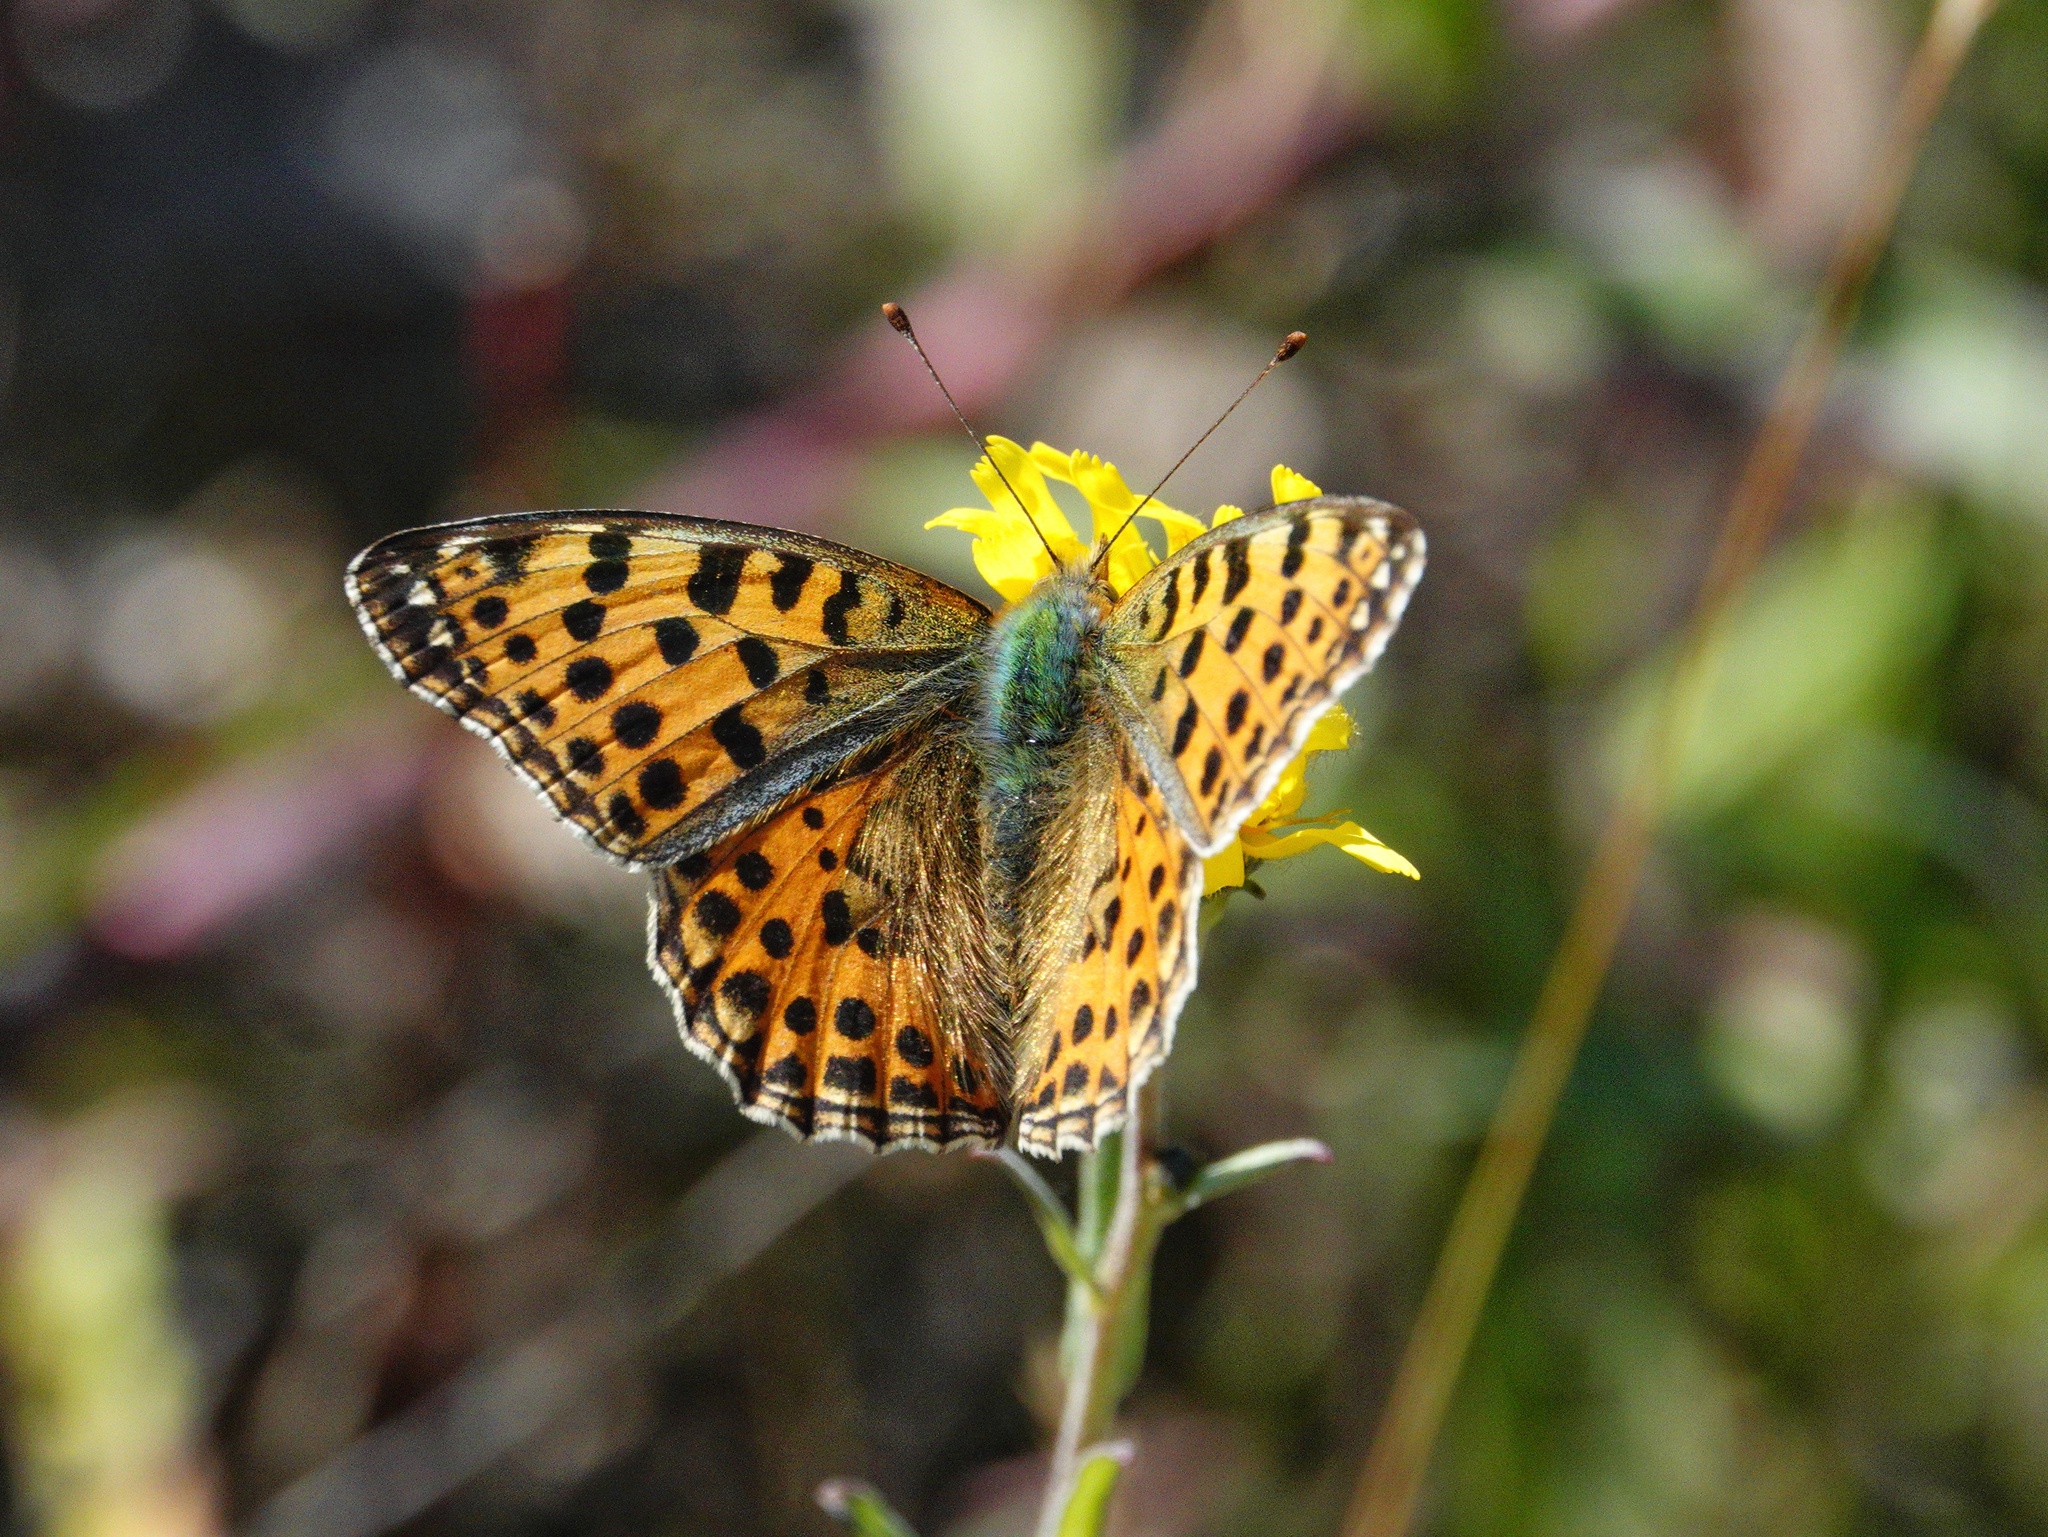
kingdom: Animalia
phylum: Arthropoda
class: Insecta
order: Lepidoptera
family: Nymphalidae
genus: Issoria
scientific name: Issoria lathonia
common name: Queen of spain fritillary
